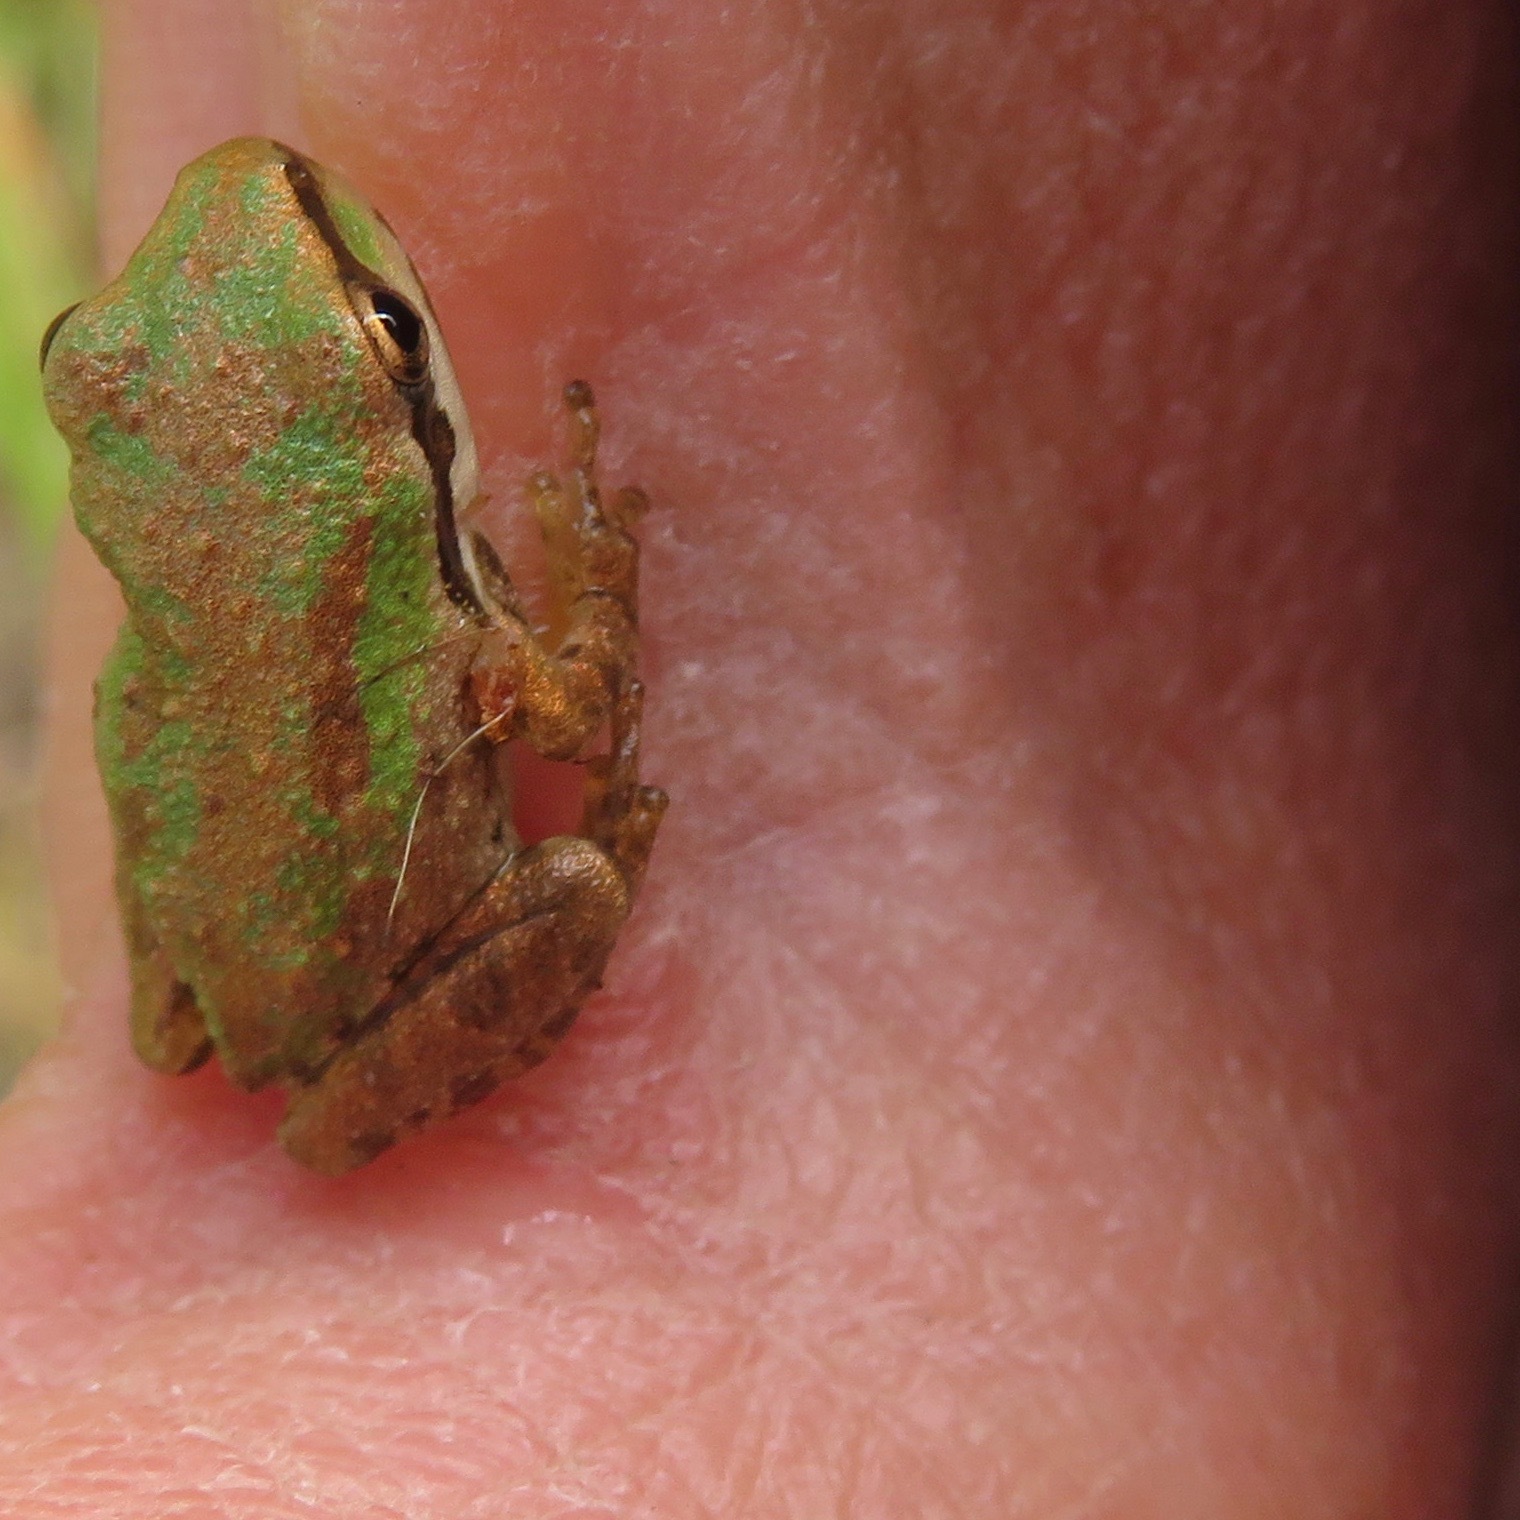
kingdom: Animalia
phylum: Chordata
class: Amphibia
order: Anura
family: Hylidae
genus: Pseudacris
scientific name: Pseudacris regilla
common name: Pacific chorus frog
